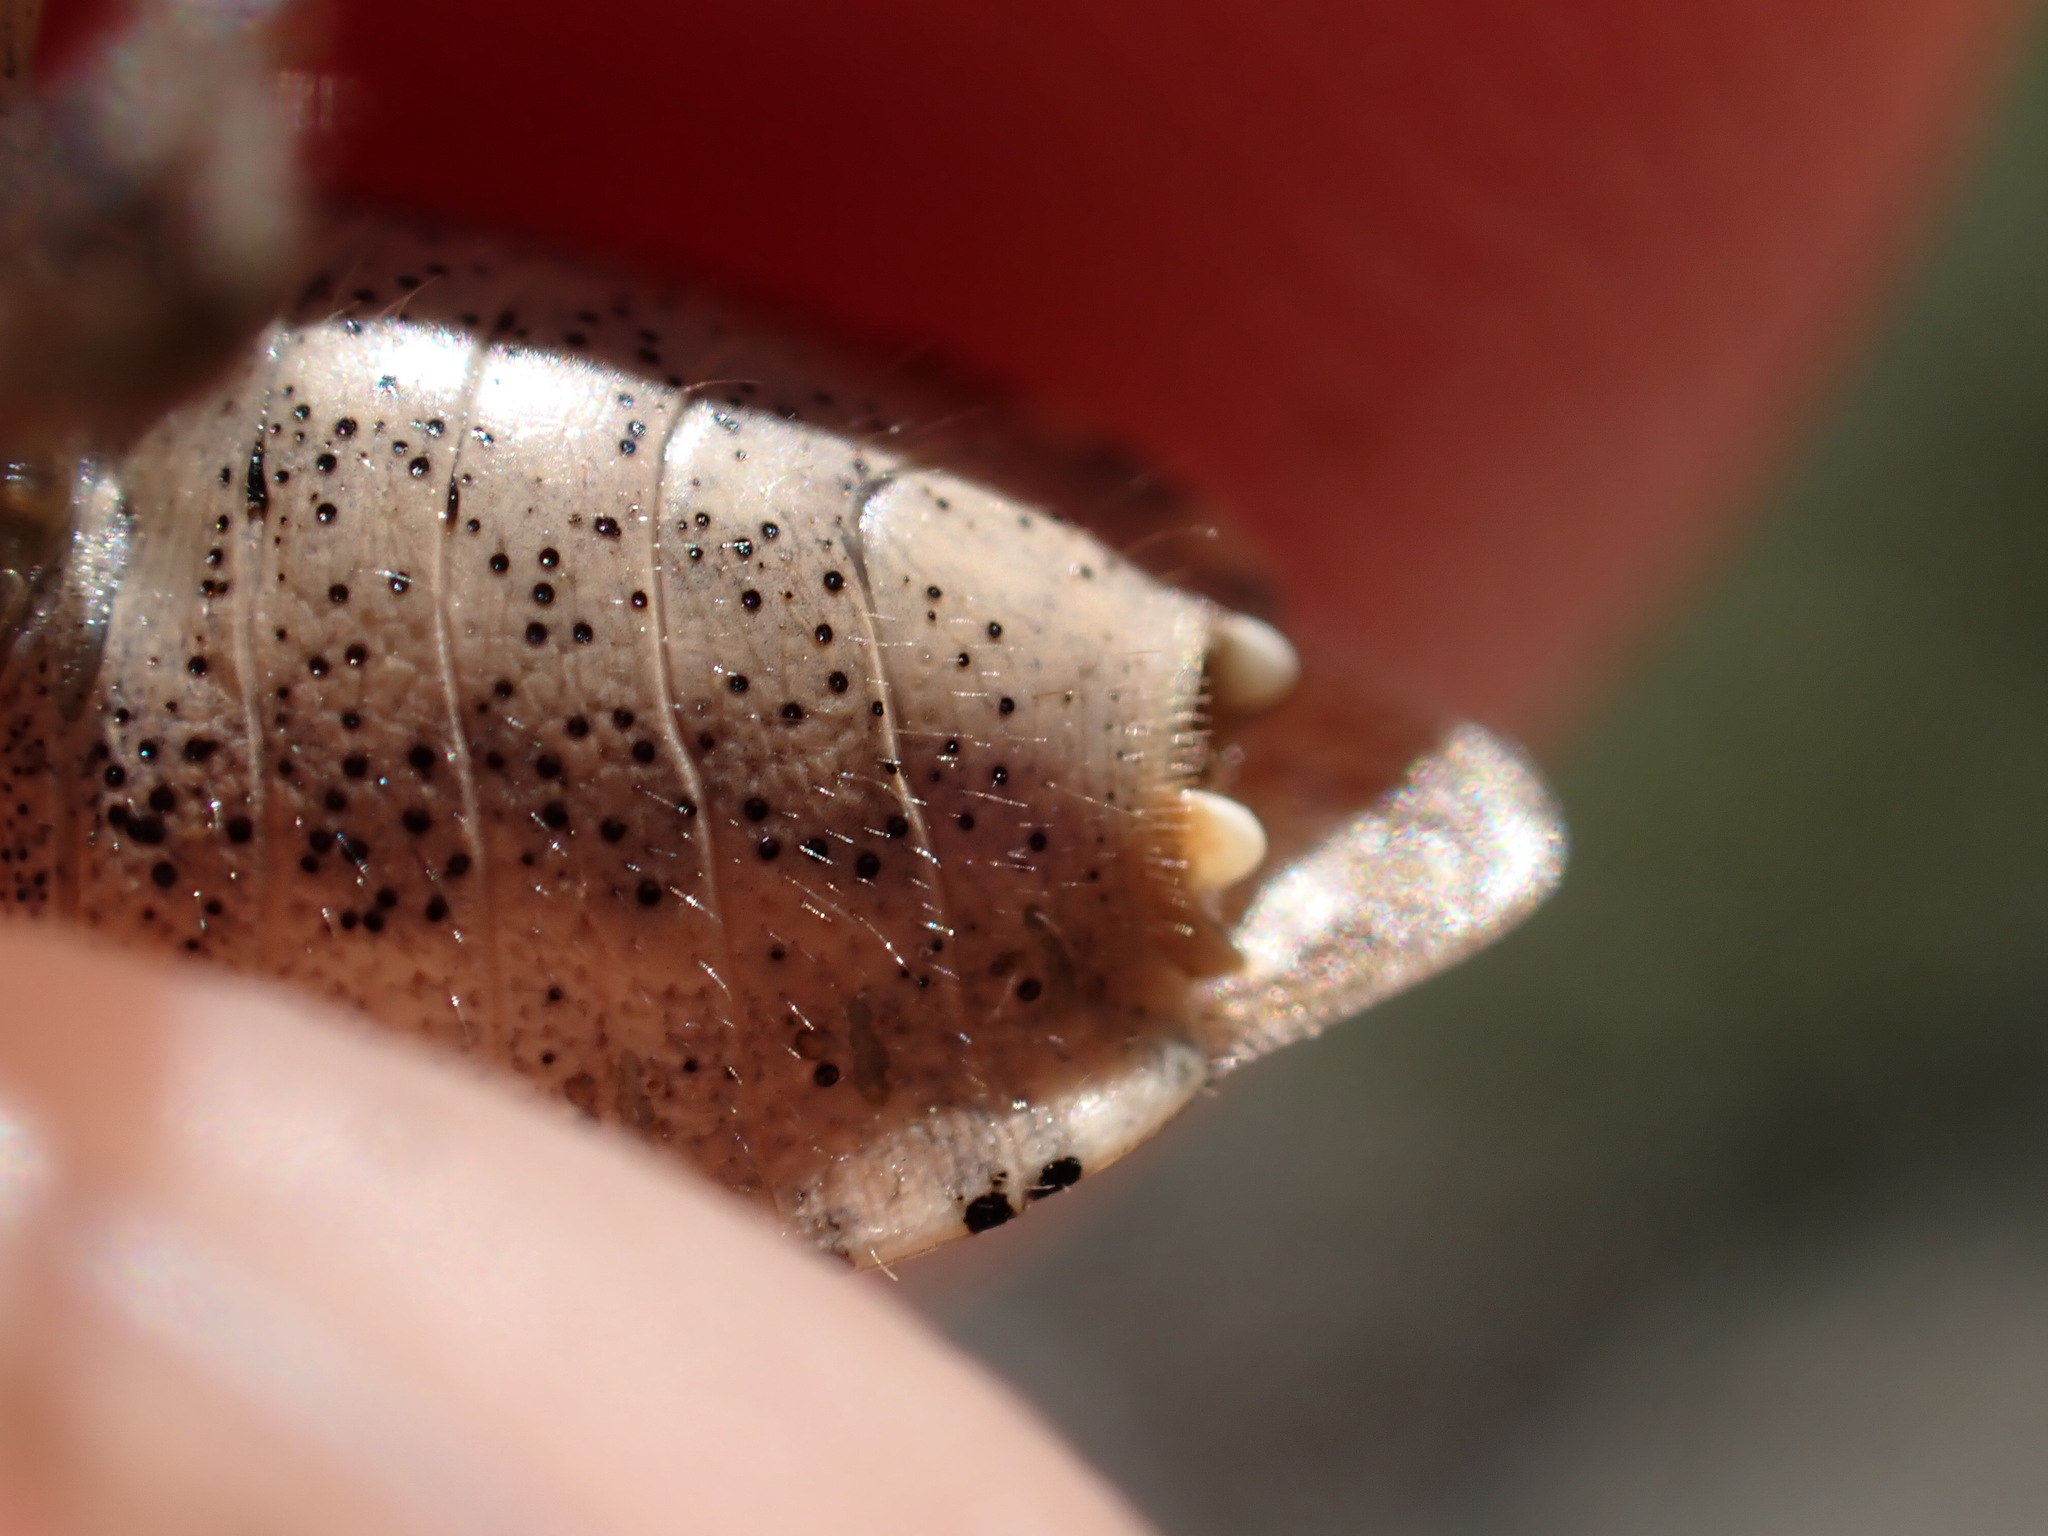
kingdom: Animalia
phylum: Arthropoda
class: Insecta
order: Hemiptera
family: Pentatomidae
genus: Dolycoris
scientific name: Dolycoris baccarum
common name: Sloe bug
